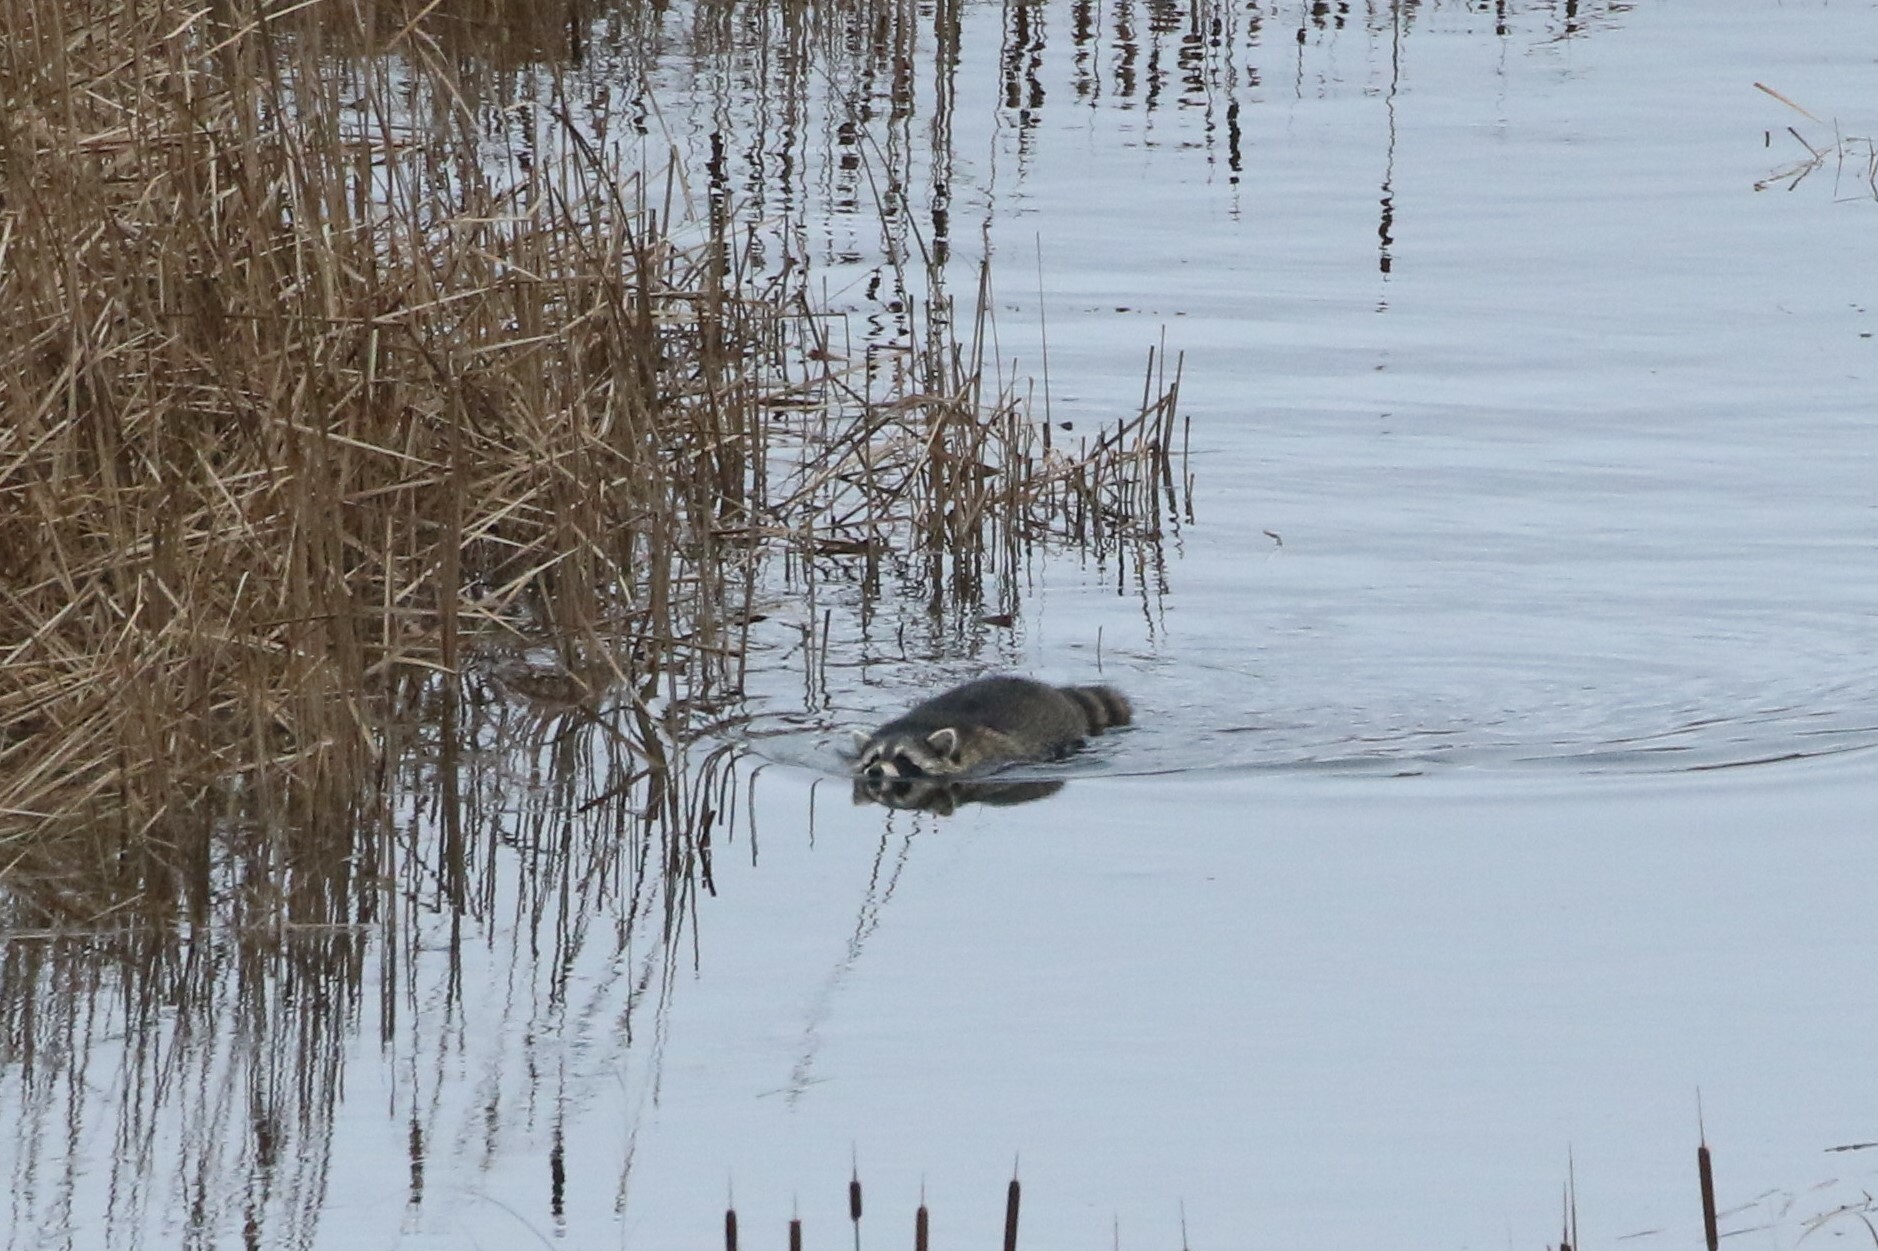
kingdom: Animalia
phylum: Chordata
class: Mammalia
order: Carnivora
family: Procyonidae
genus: Procyon
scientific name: Procyon lotor
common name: Raccoon
